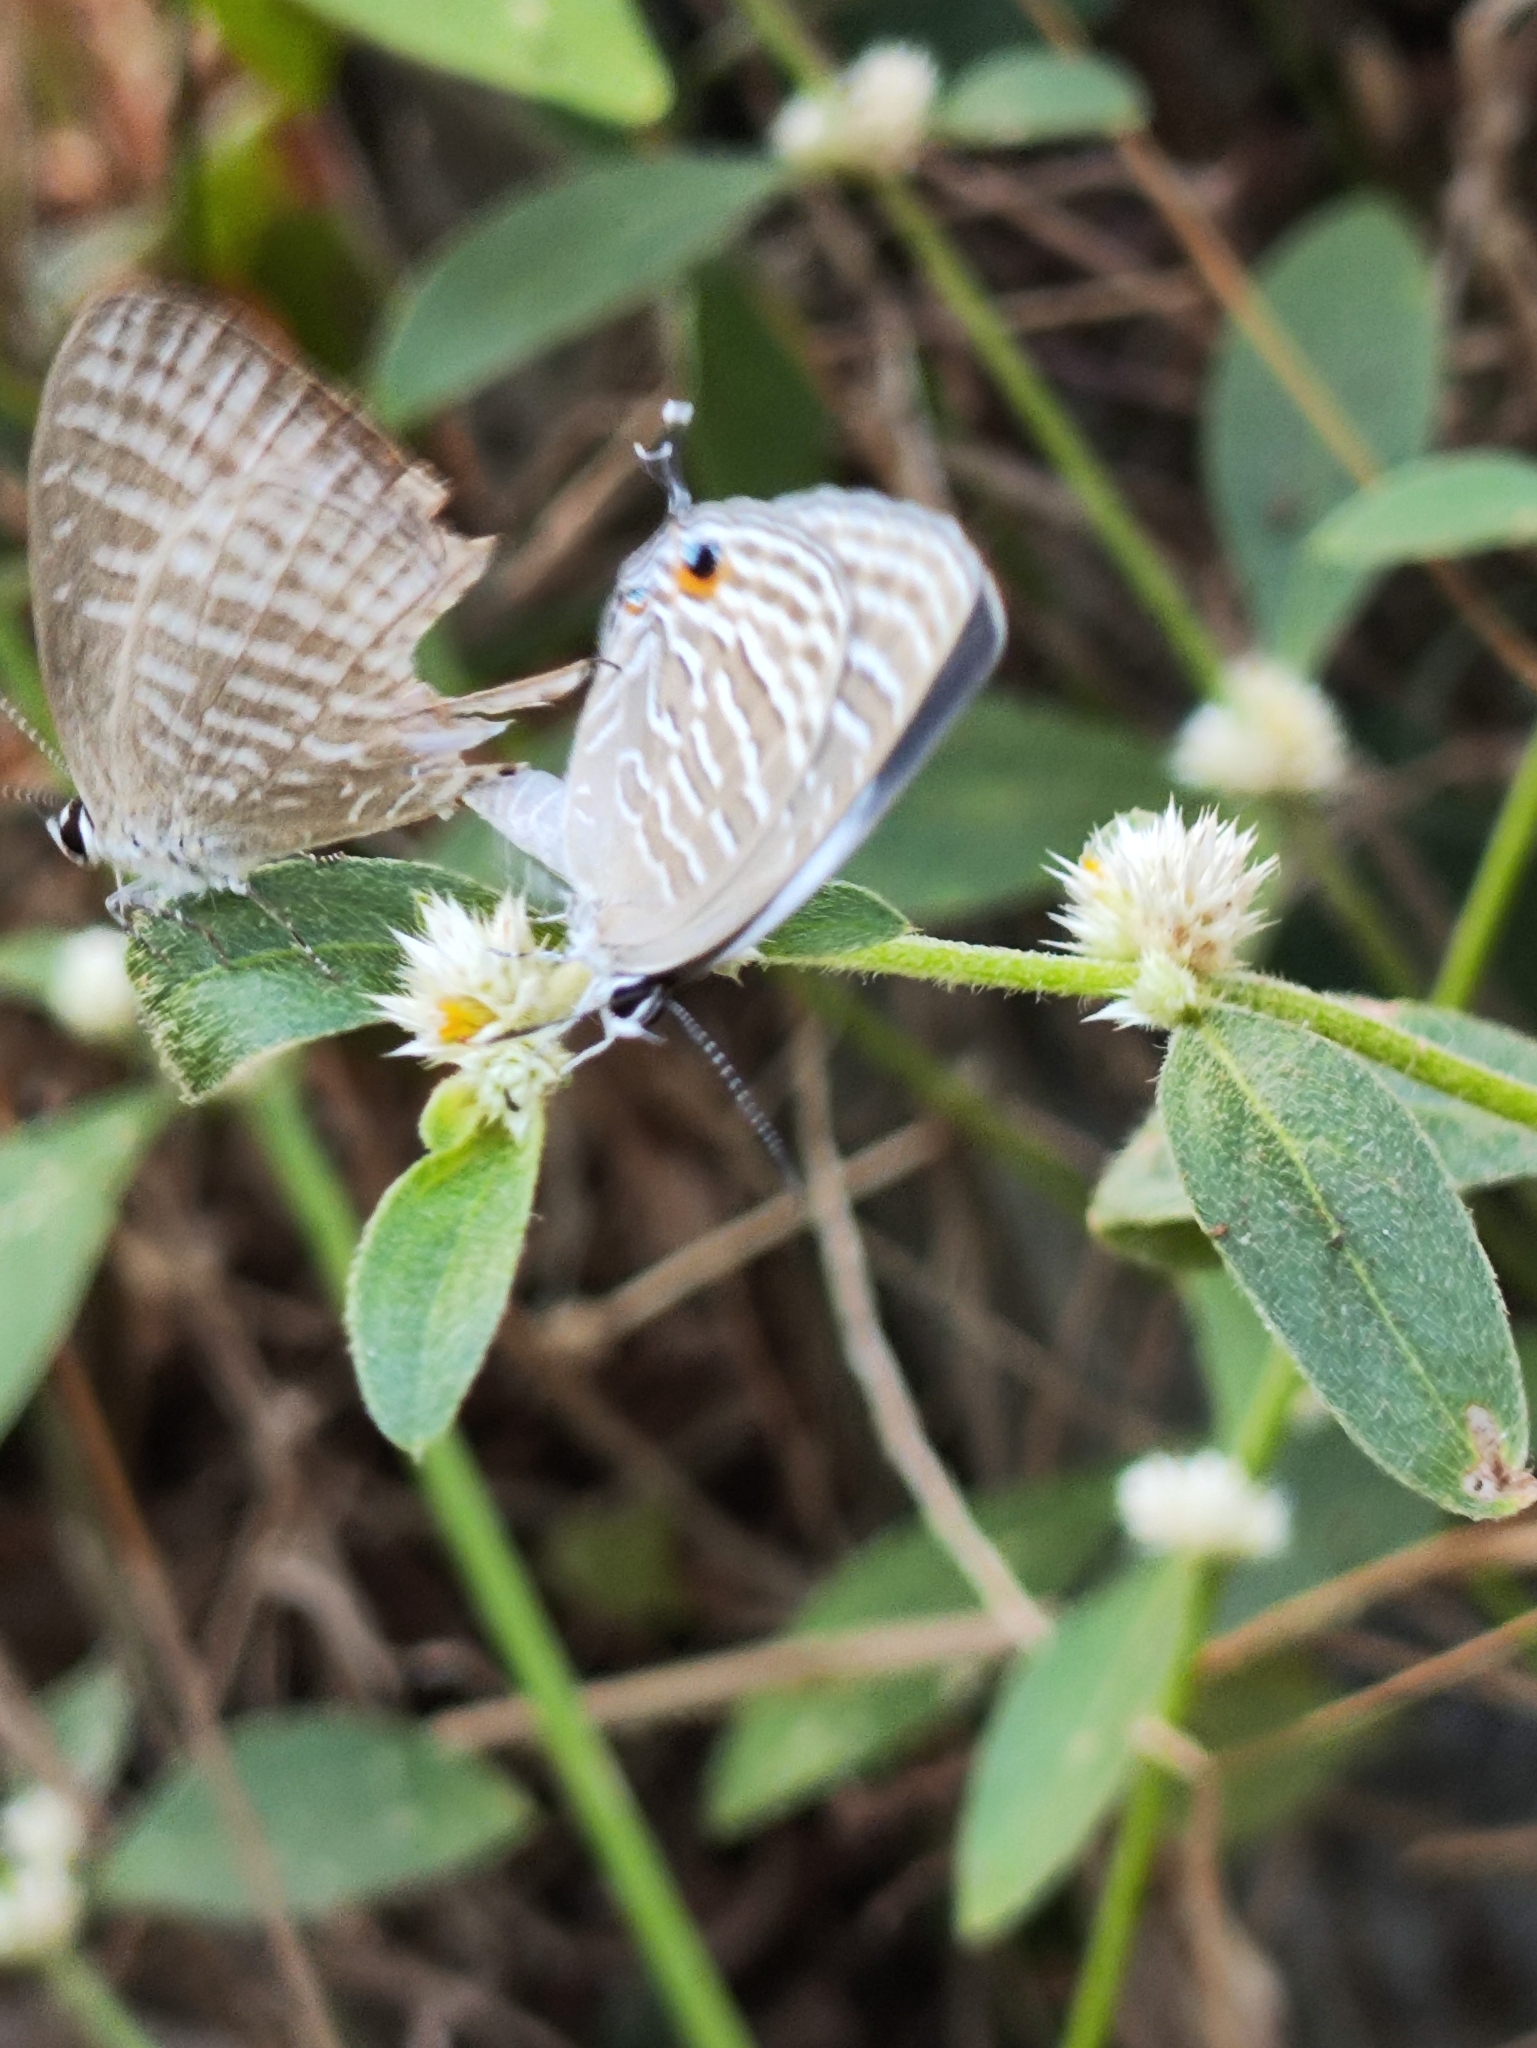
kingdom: Animalia
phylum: Arthropoda
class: Insecta
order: Lepidoptera
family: Lycaenidae
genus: Jamides
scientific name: Jamides celeno
